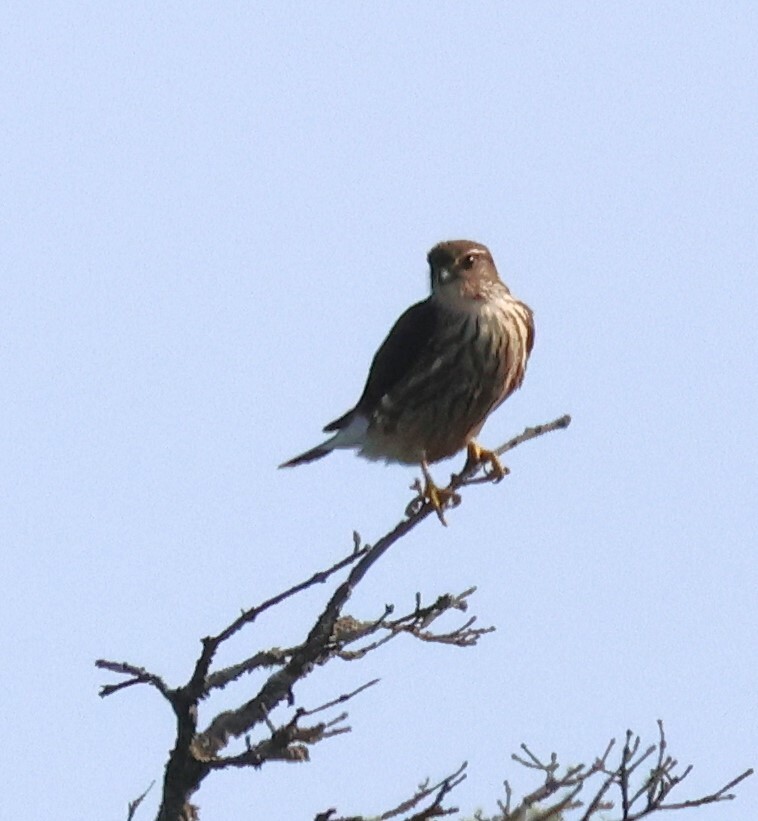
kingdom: Animalia
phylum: Chordata
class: Aves
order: Falconiformes
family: Falconidae
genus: Falco
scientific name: Falco columbarius
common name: Merlin
